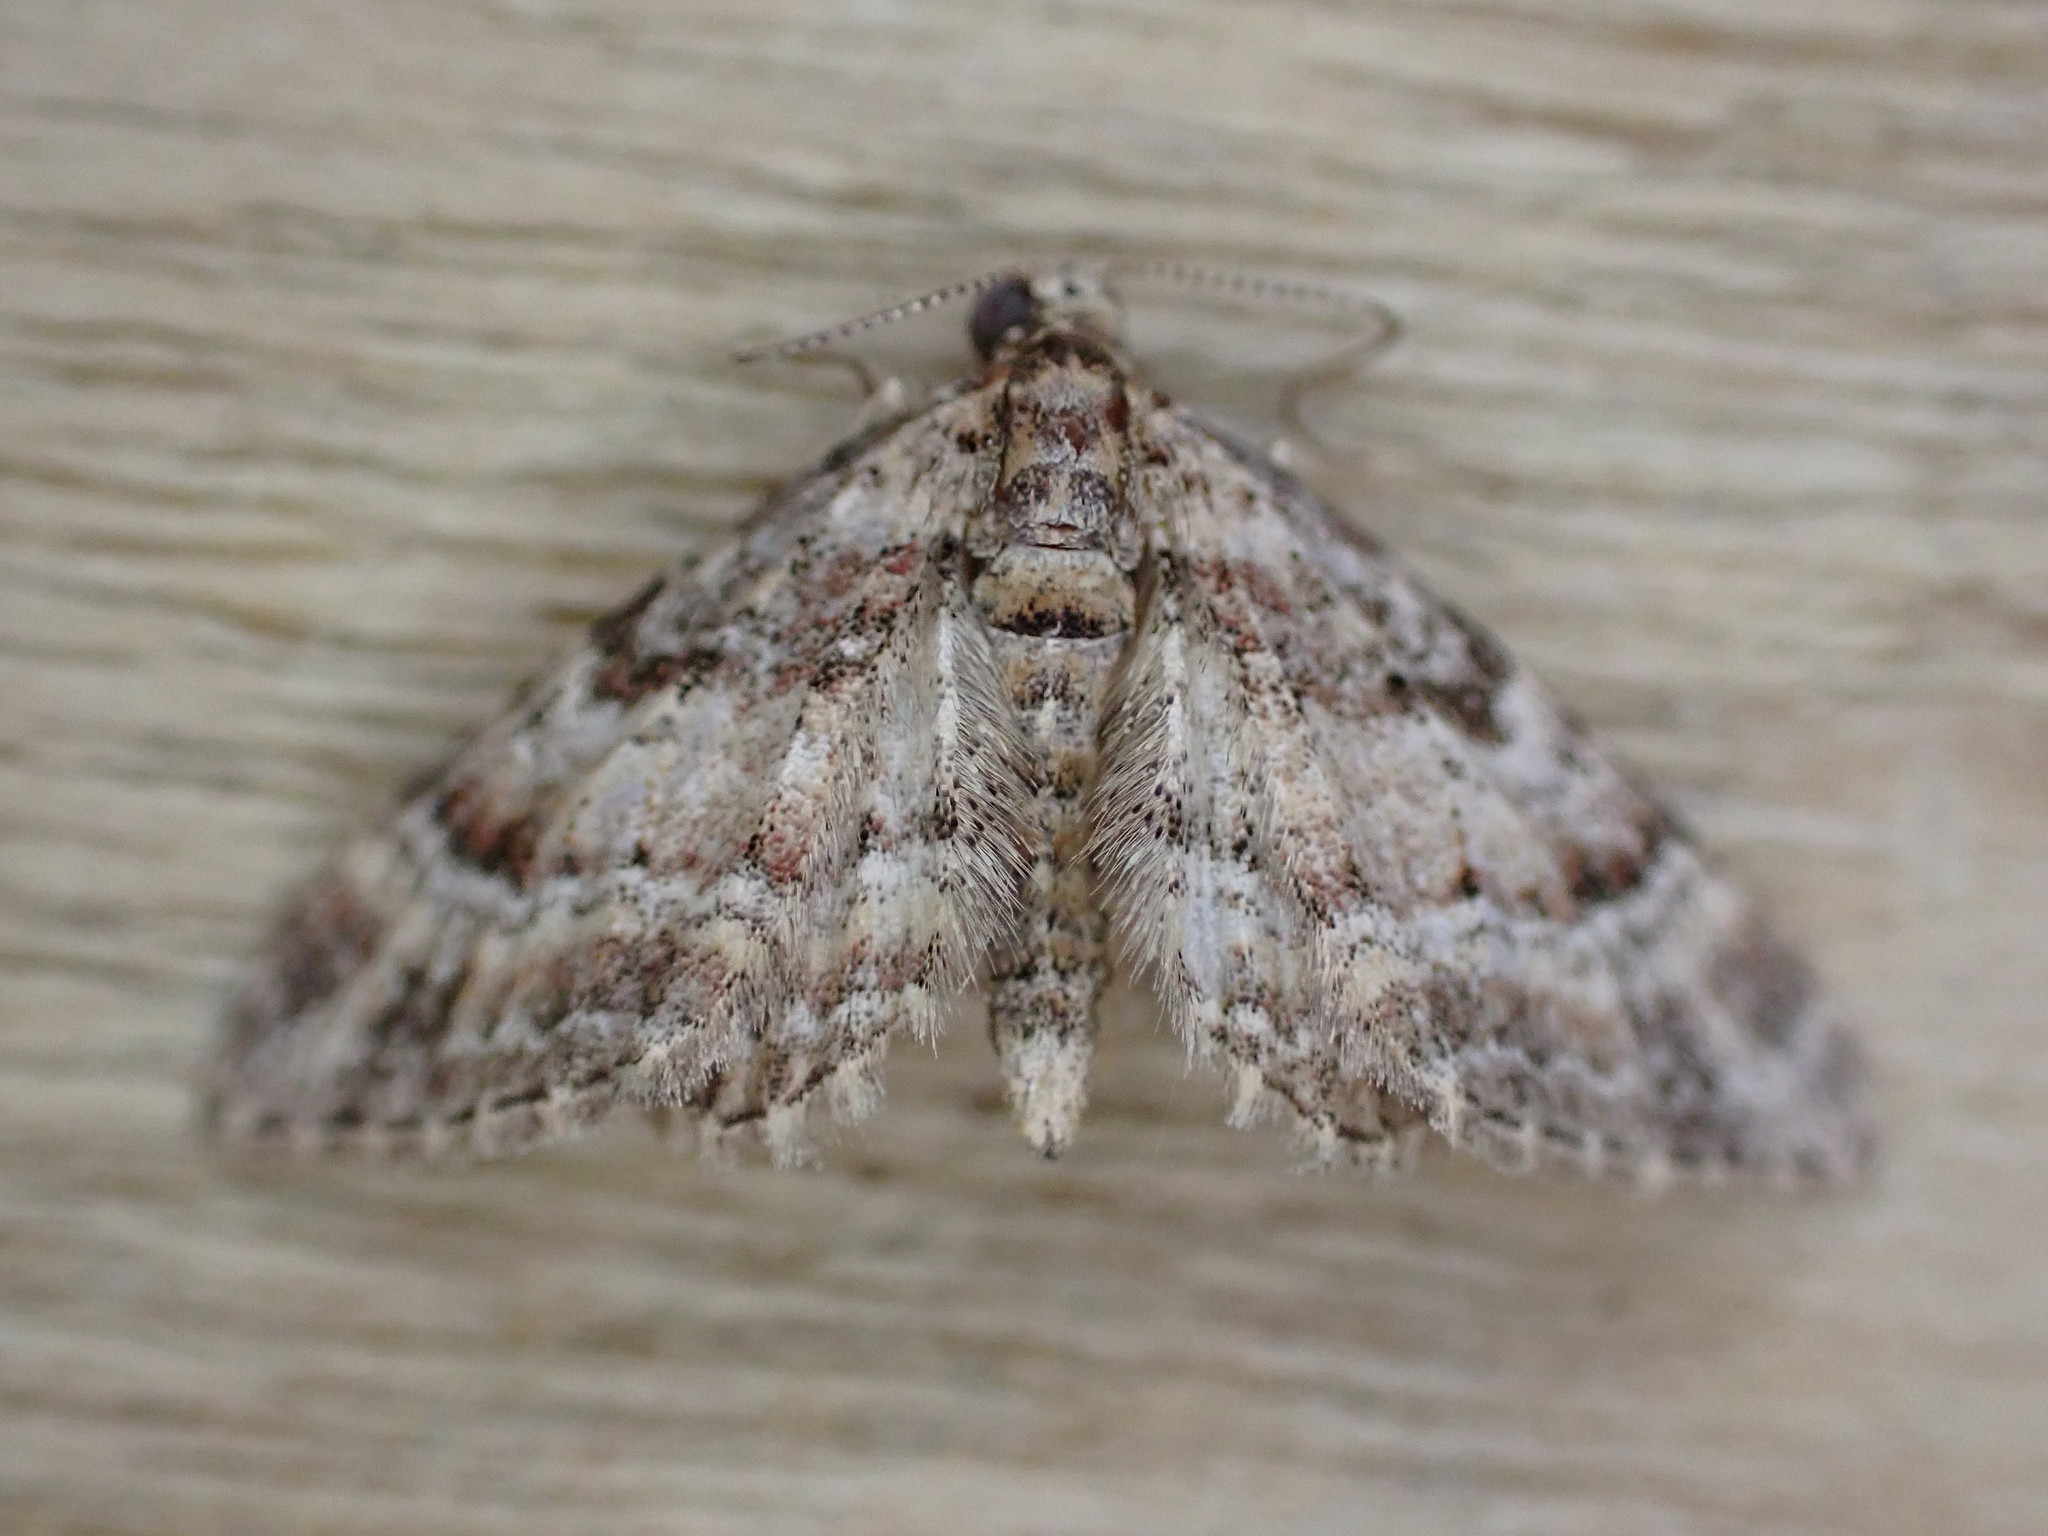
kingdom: Animalia
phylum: Arthropoda
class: Insecta
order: Lepidoptera
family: Geometridae
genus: Gymnoscelis
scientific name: Gymnoscelis rufifasciata
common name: Double-striped pug
